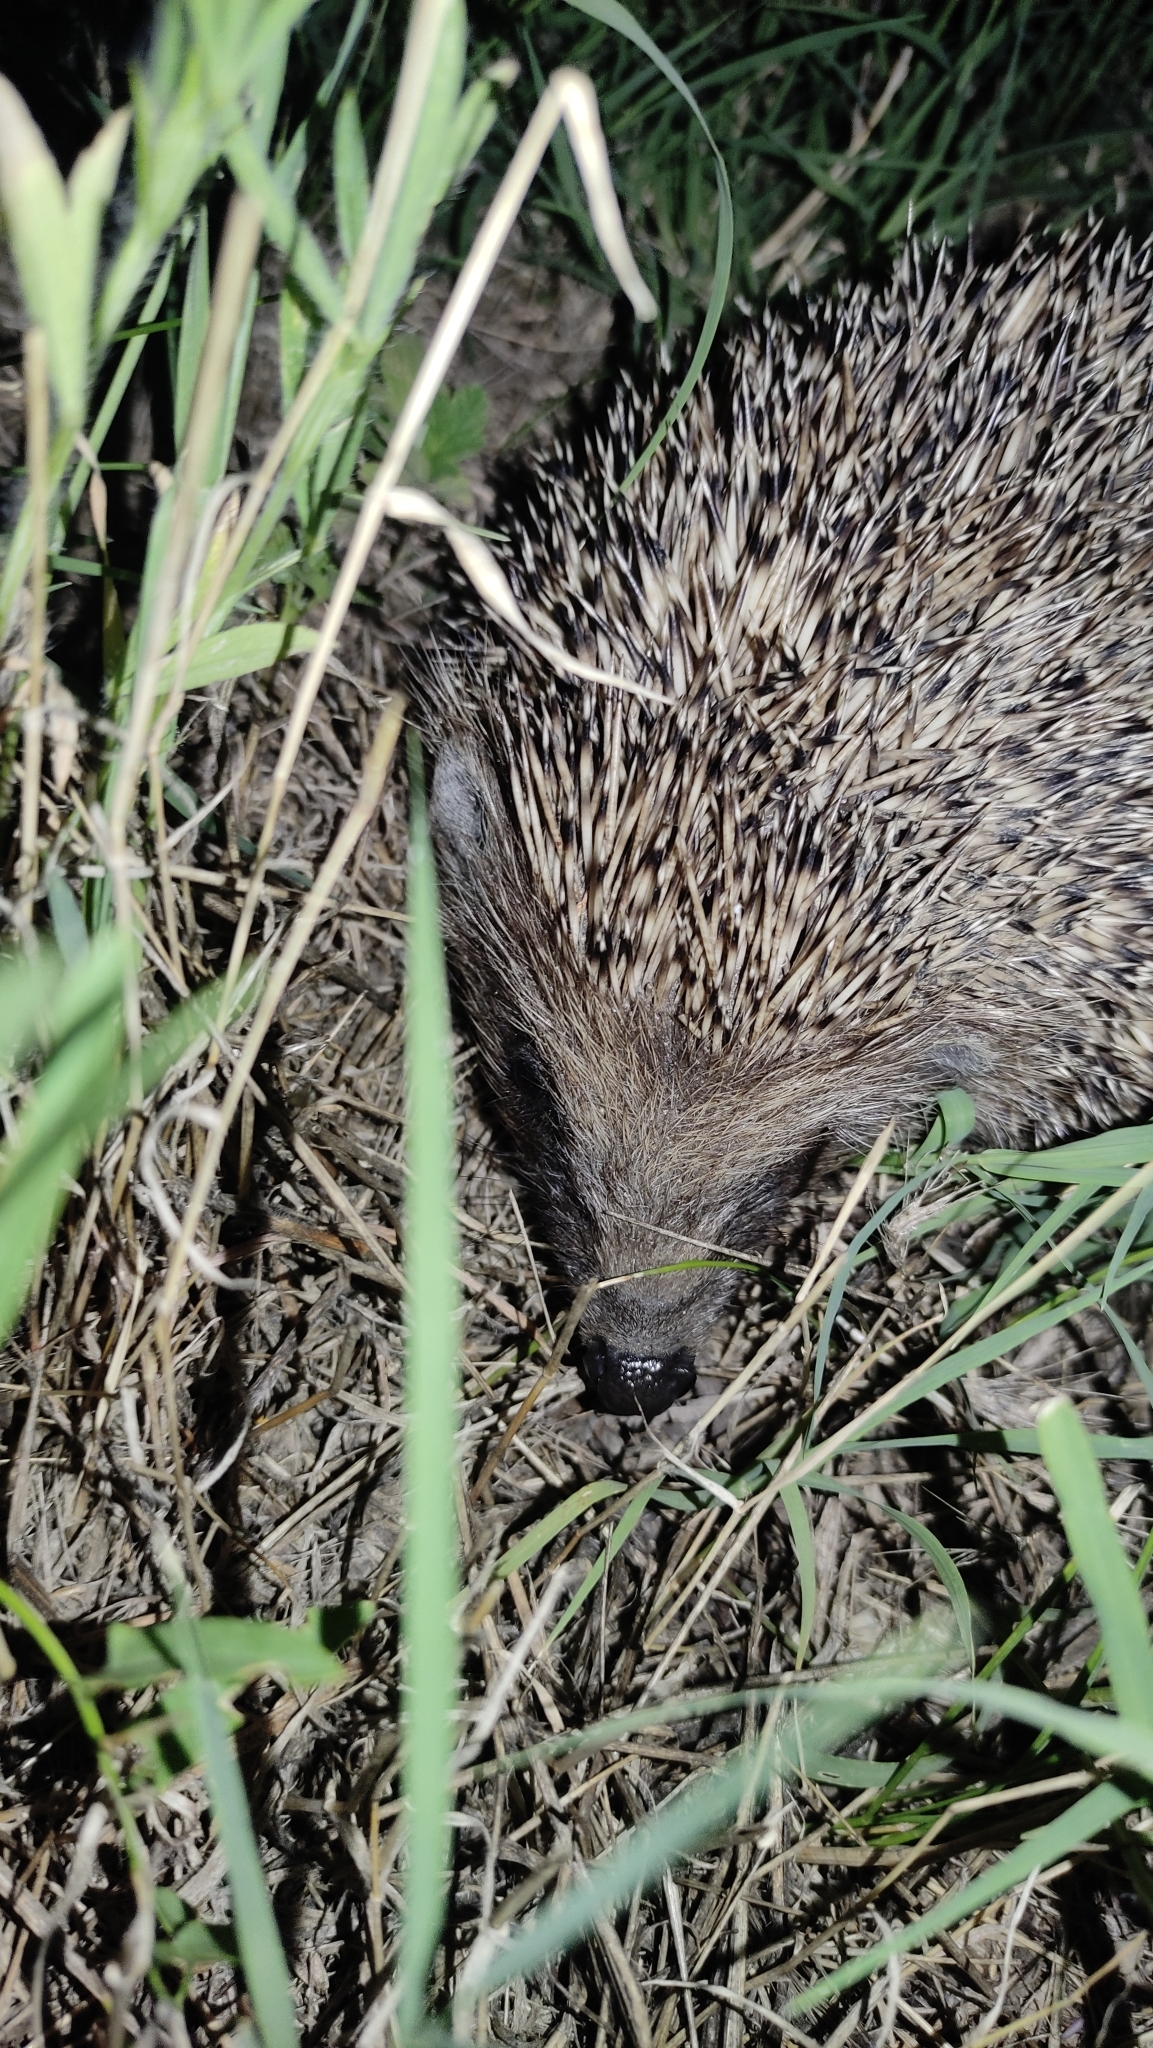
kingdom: Animalia
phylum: Chordata
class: Mammalia
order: Erinaceomorpha
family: Erinaceidae
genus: Erinaceus
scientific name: Erinaceus roumanicus
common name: Northern white-breasted hedgehog
